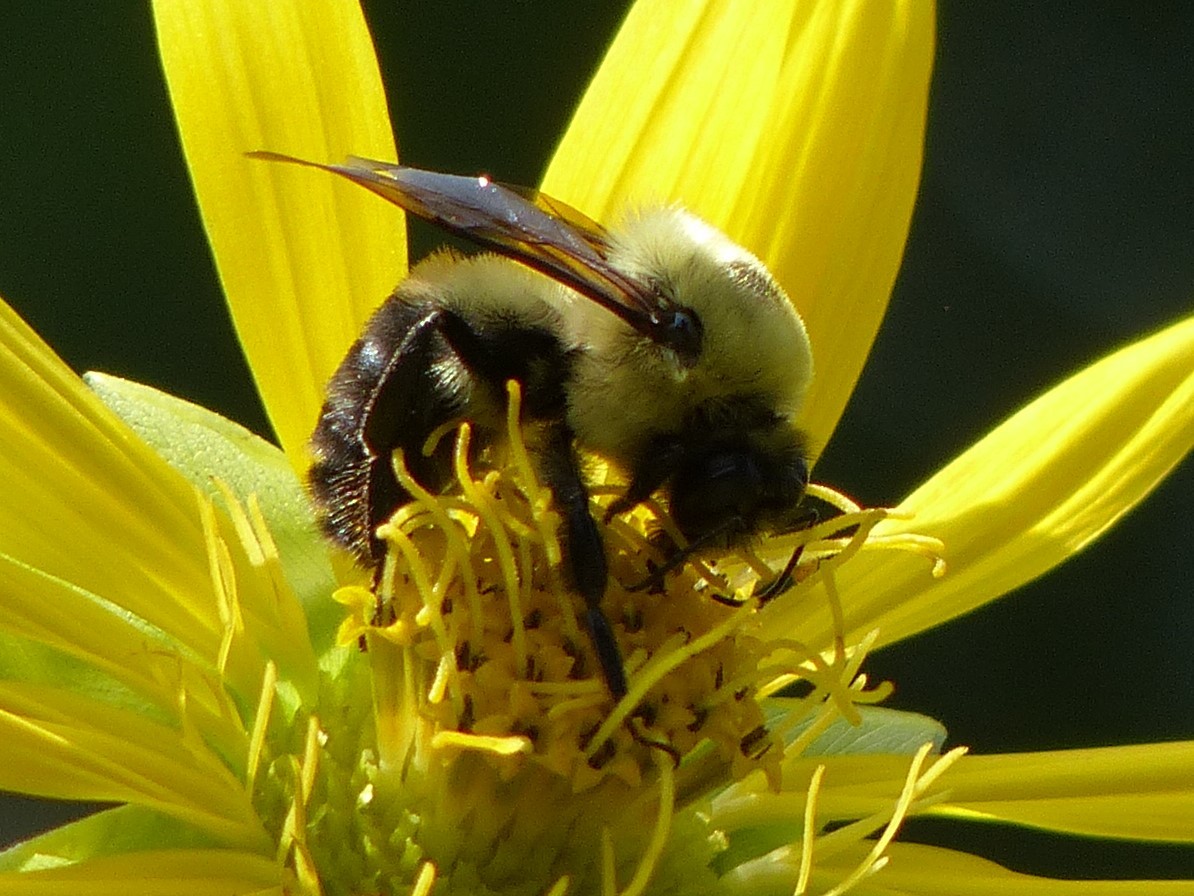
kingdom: Animalia
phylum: Arthropoda
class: Insecta
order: Hymenoptera
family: Apidae
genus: Bombus
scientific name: Bombus griseocollis
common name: Brown-belted bumble bee
